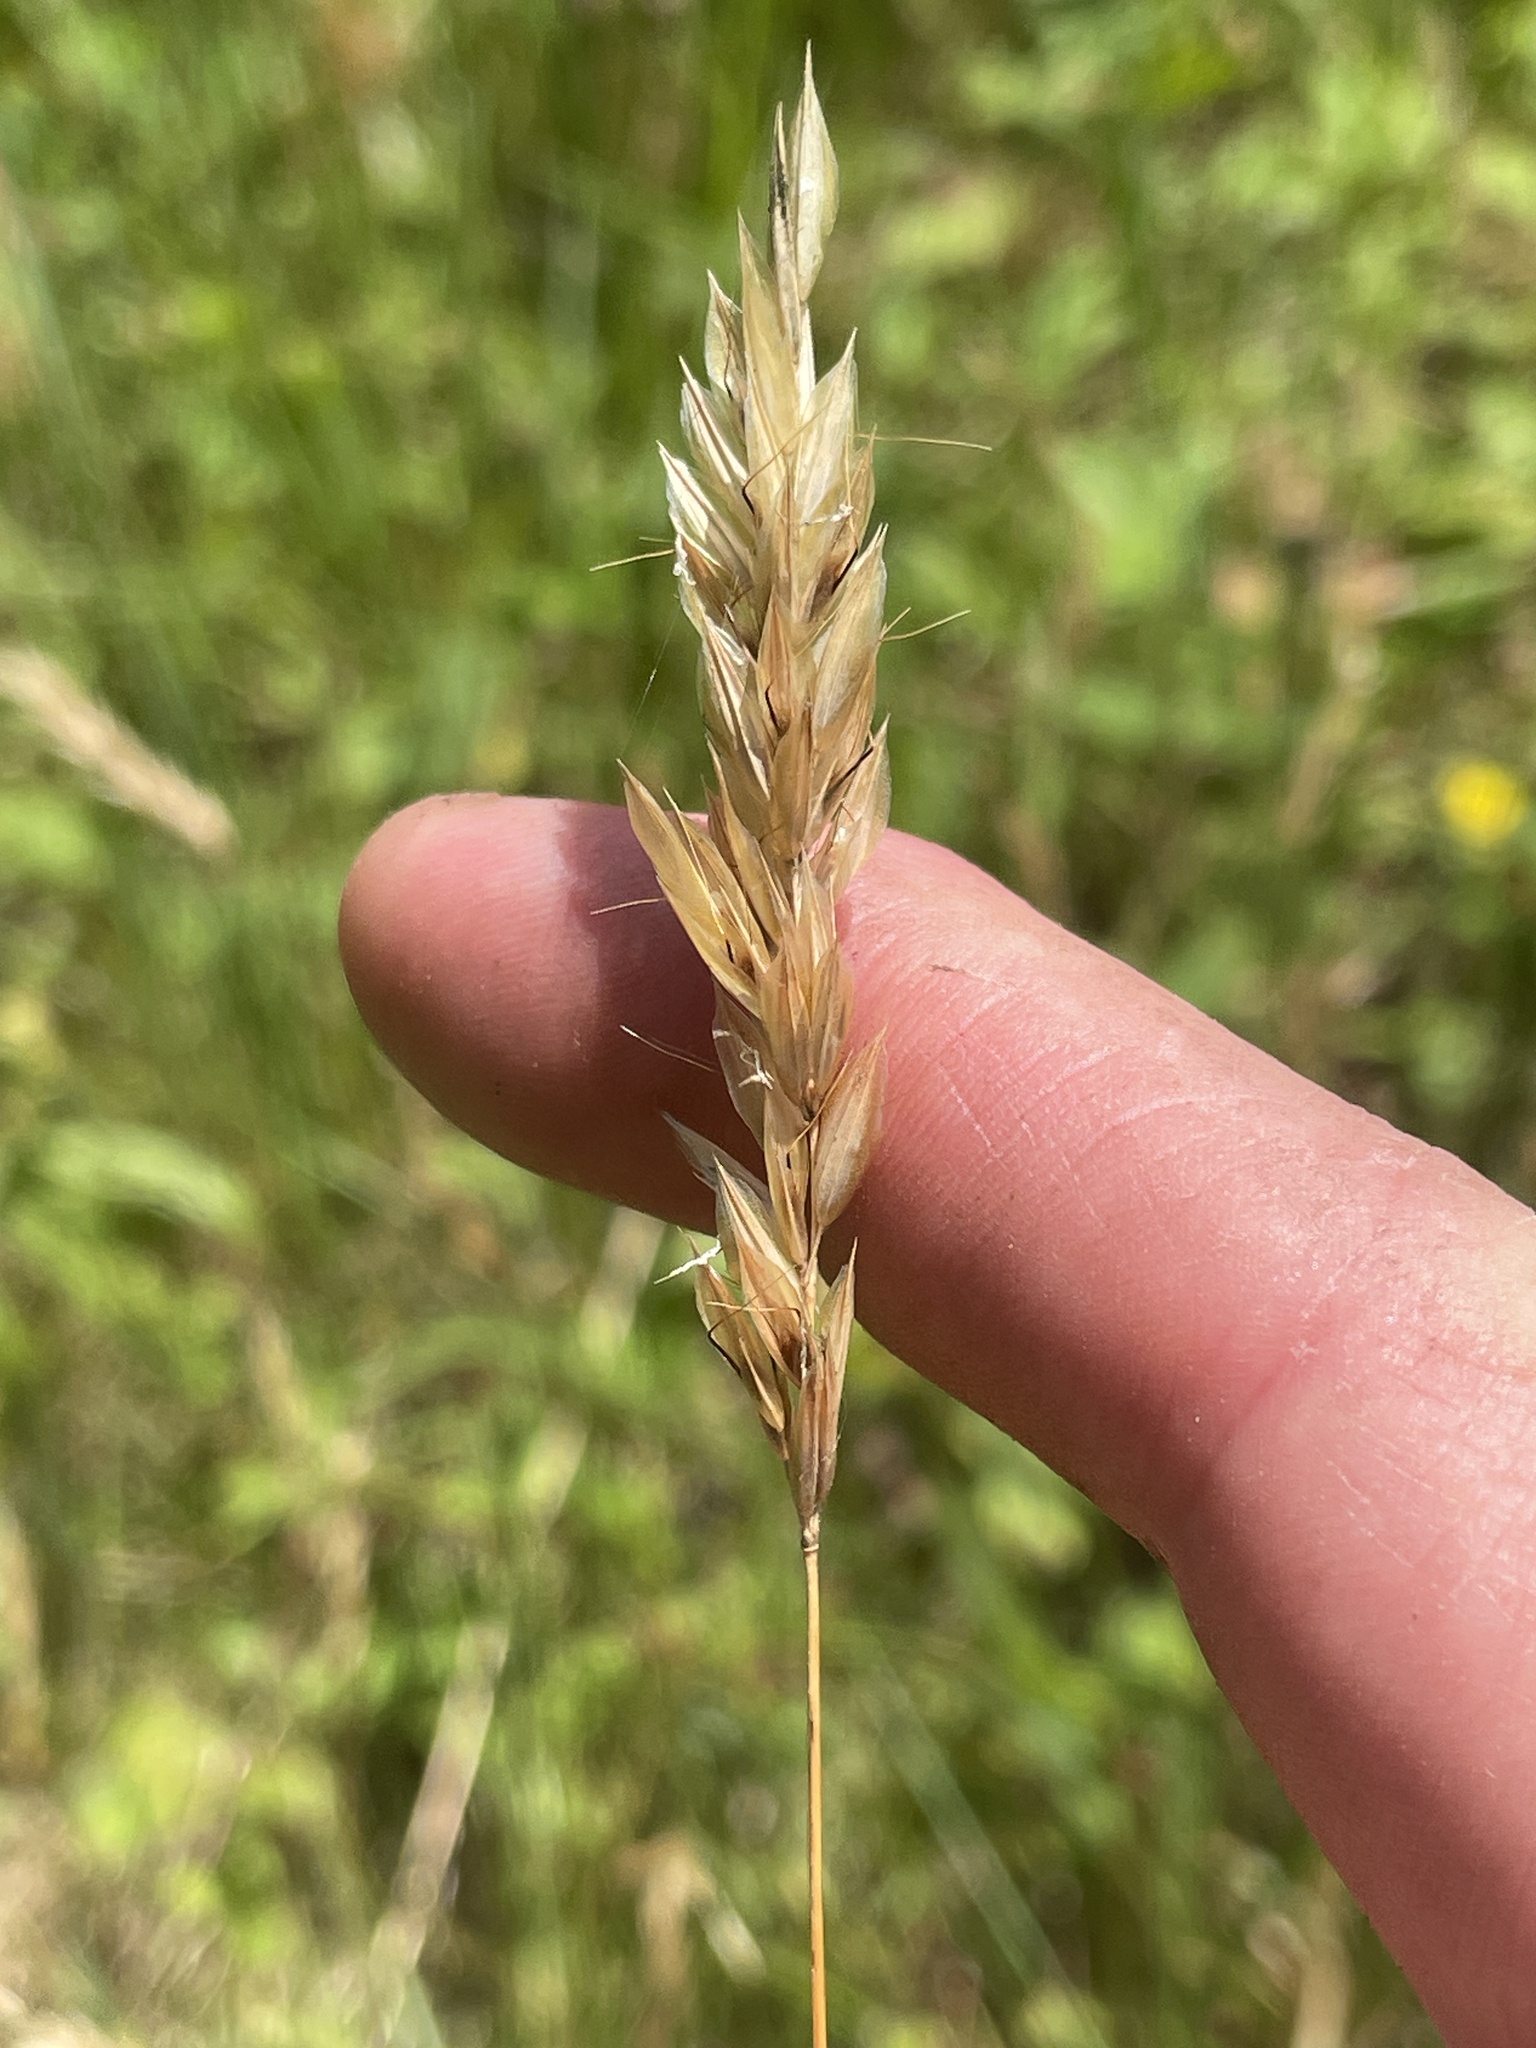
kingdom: Plantae
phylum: Tracheophyta
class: Liliopsida
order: Poales
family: Poaceae
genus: Anthoxanthum
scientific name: Anthoxanthum odoratum
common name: Sweet vernalgrass
